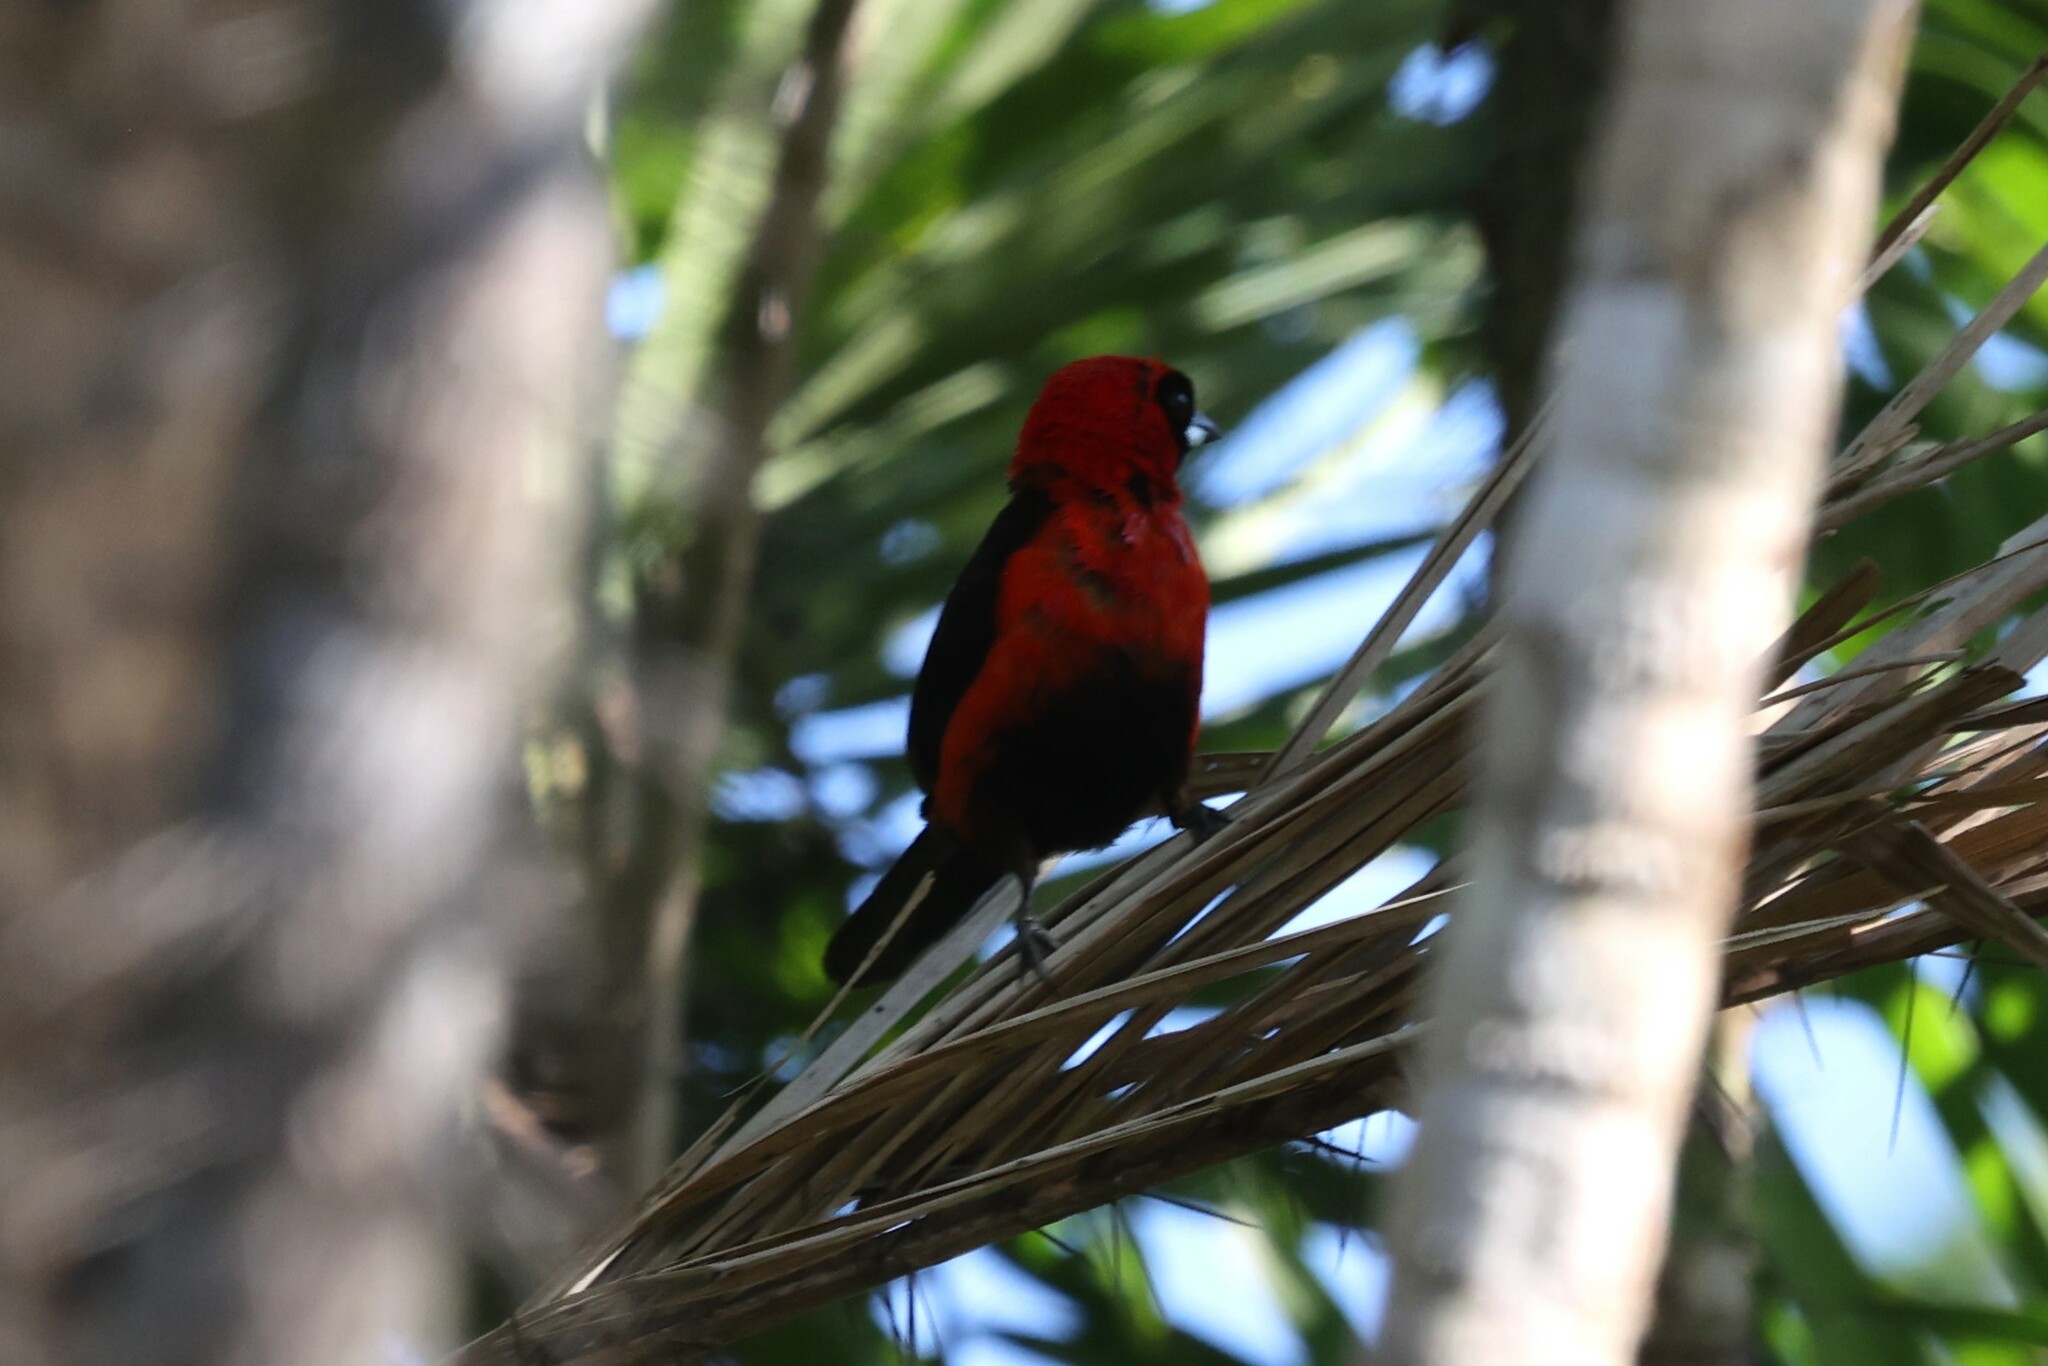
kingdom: Animalia
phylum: Chordata
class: Aves
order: Passeriformes
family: Thraupidae
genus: Ramphocelus
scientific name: Ramphocelus nigrogularis
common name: Masked crimson tanager
